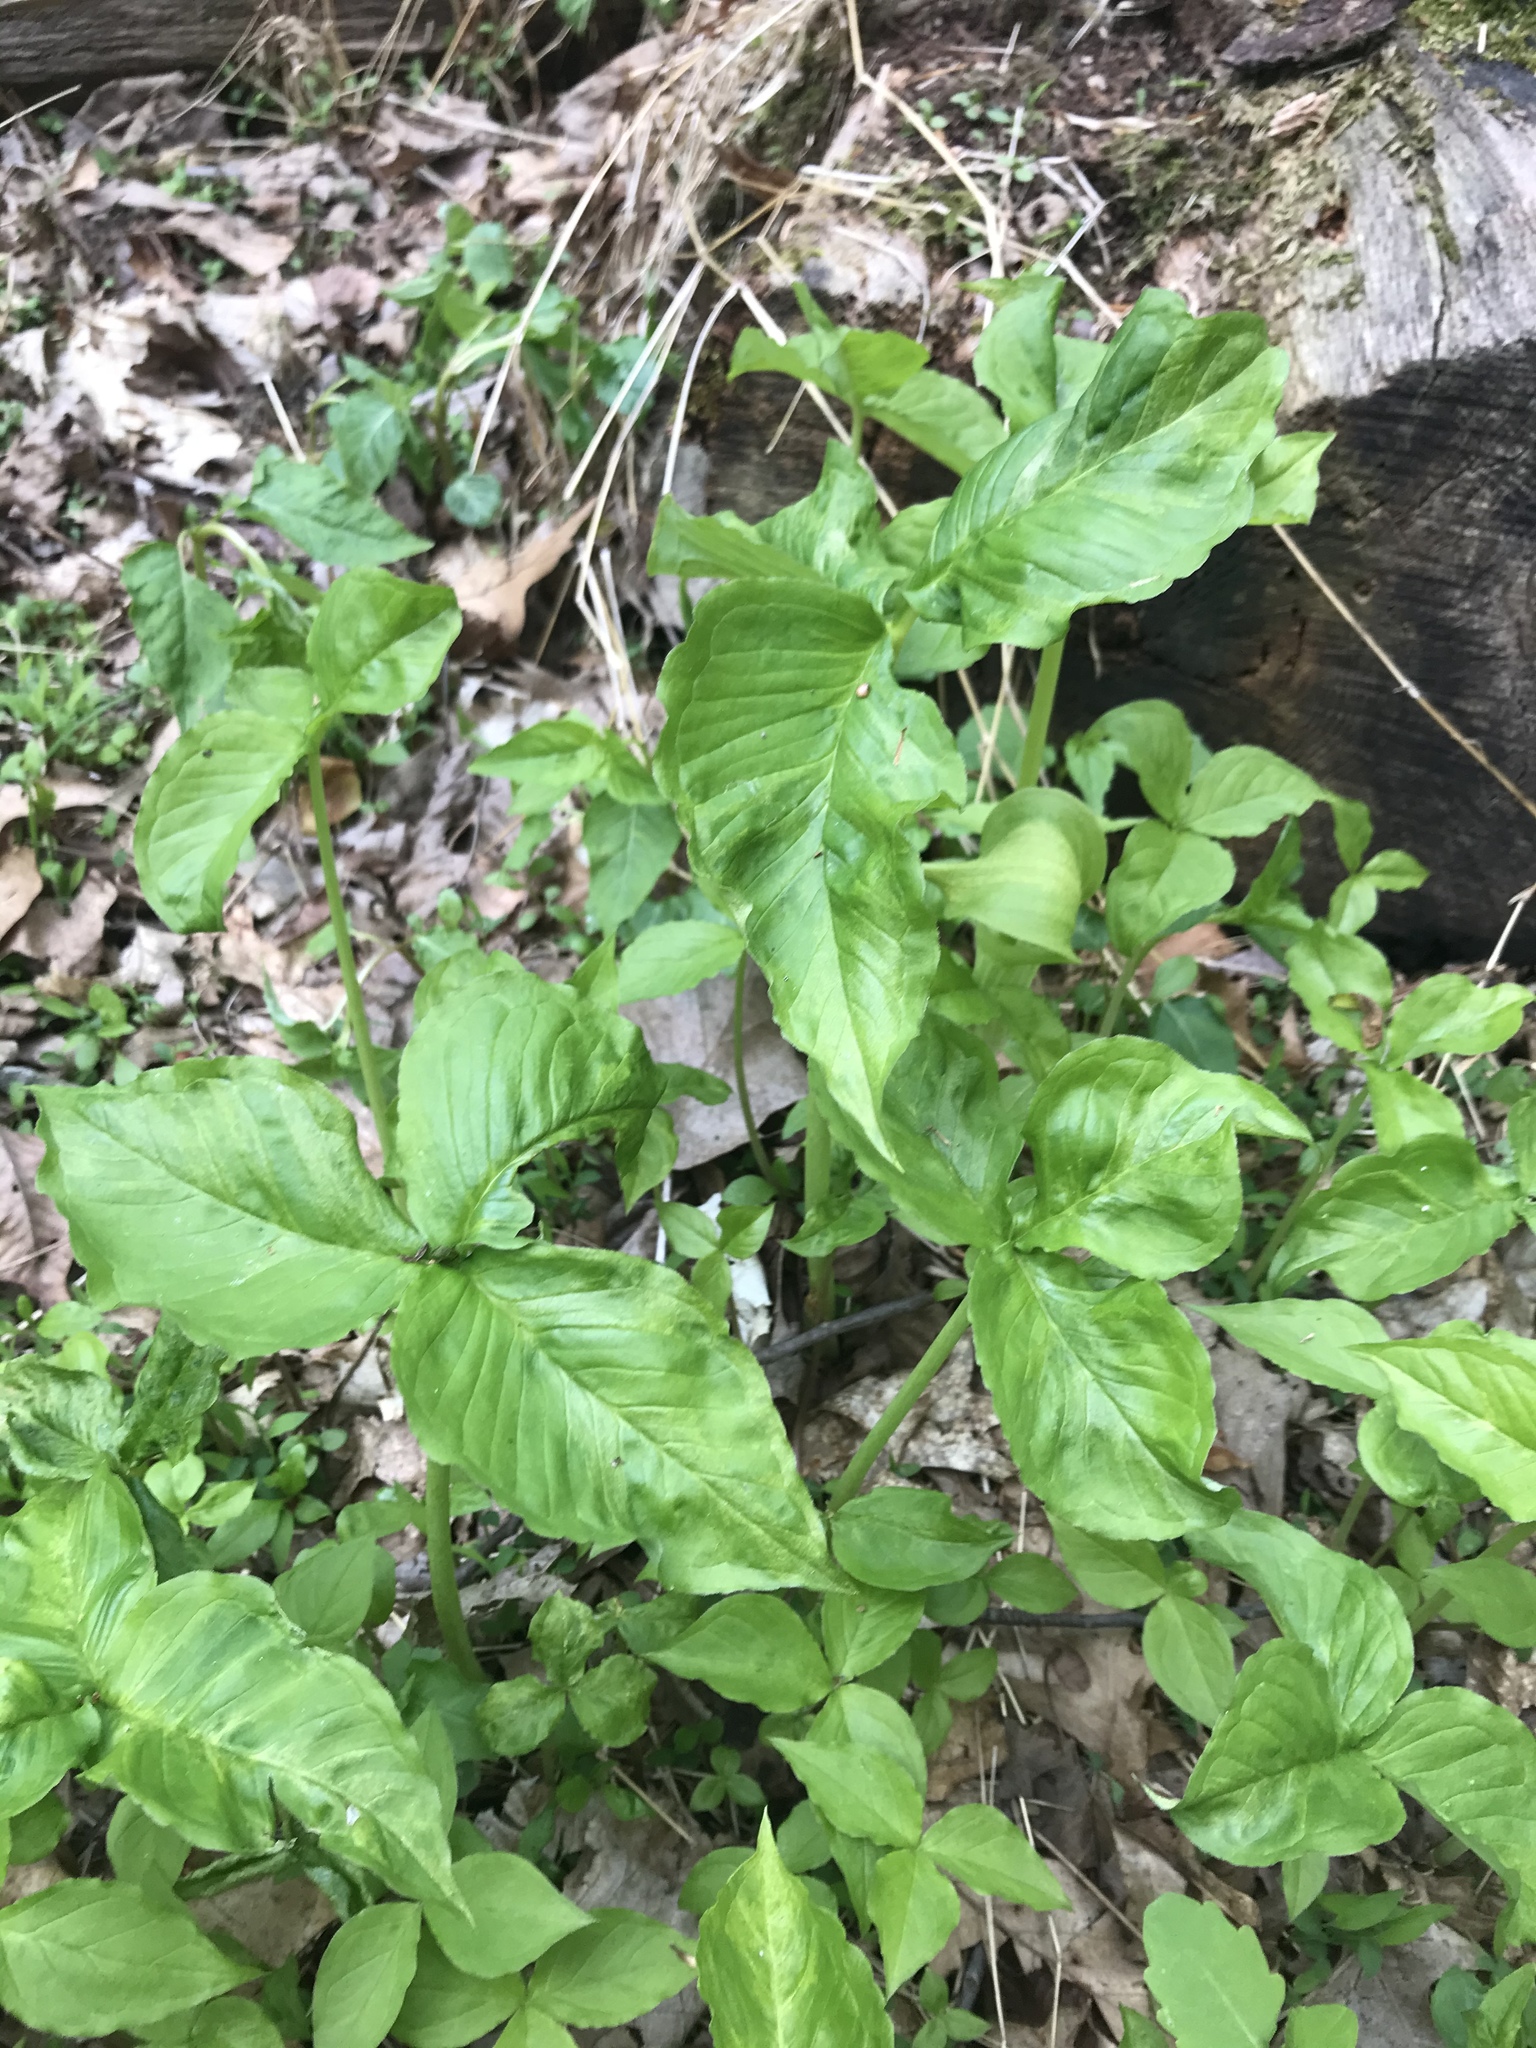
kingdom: Plantae
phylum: Tracheophyta
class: Liliopsida
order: Alismatales
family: Araceae
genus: Arisaema
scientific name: Arisaema triphyllum
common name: Jack-in-the-pulpit
